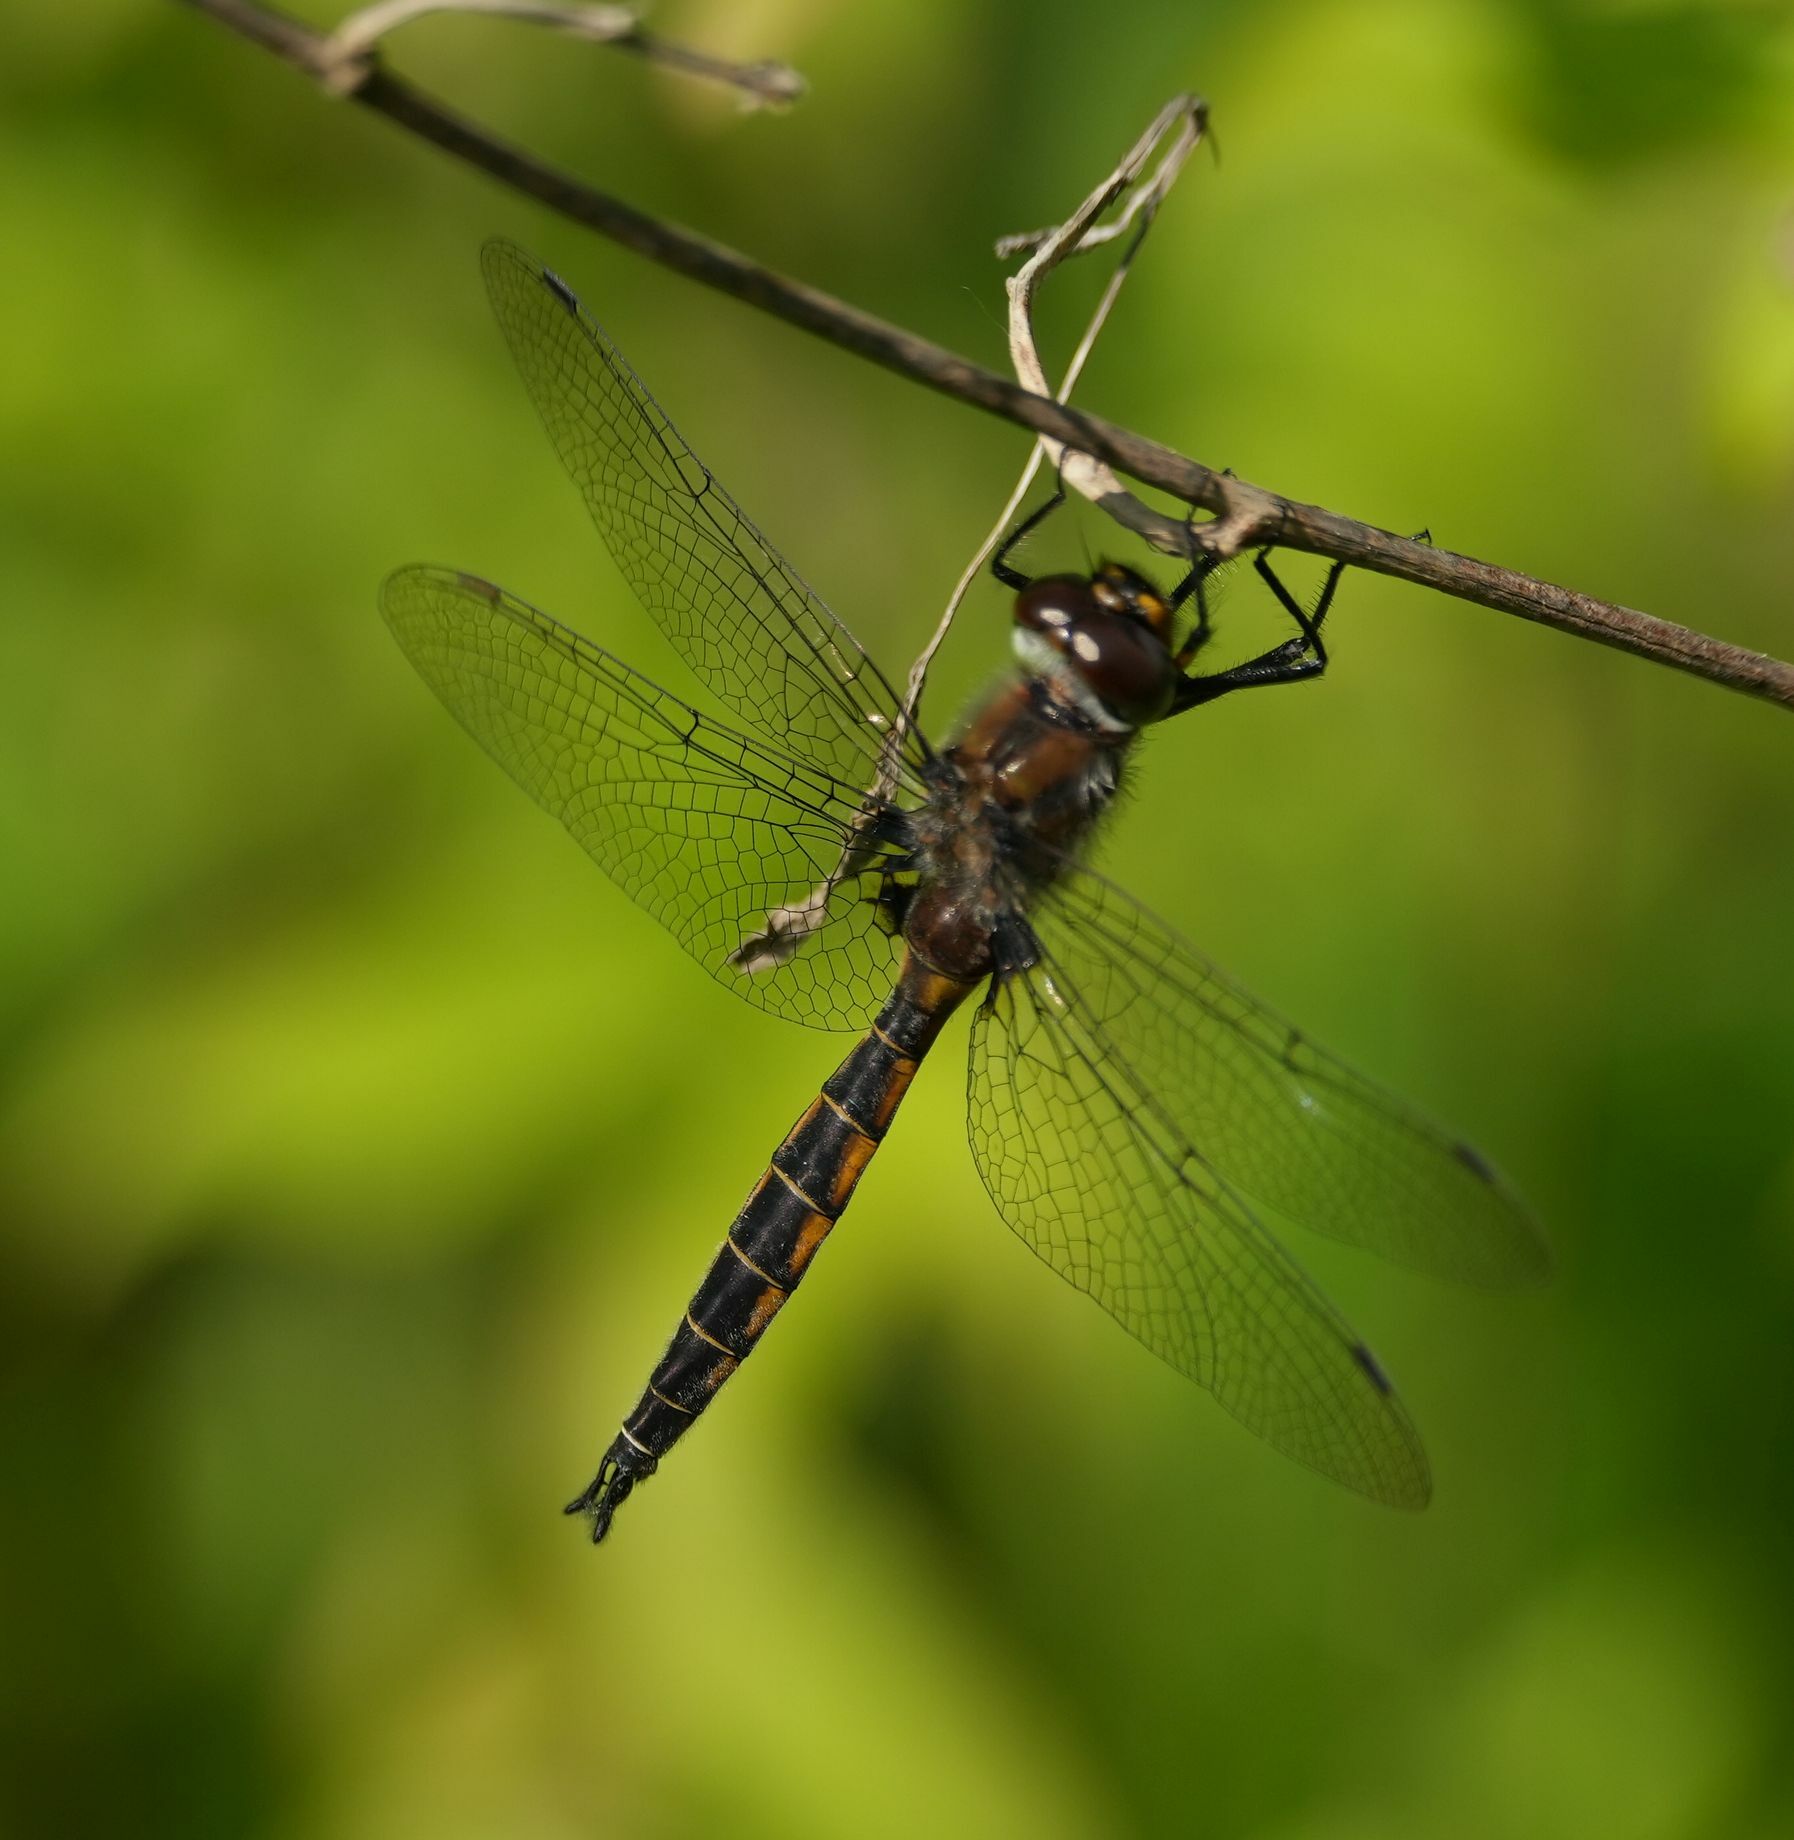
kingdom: Animalia
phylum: Arthropoda
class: Insecta
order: Odonata
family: Corduliidae
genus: Epitheca
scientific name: Epitheca spinigera
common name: Spiny baskettail
